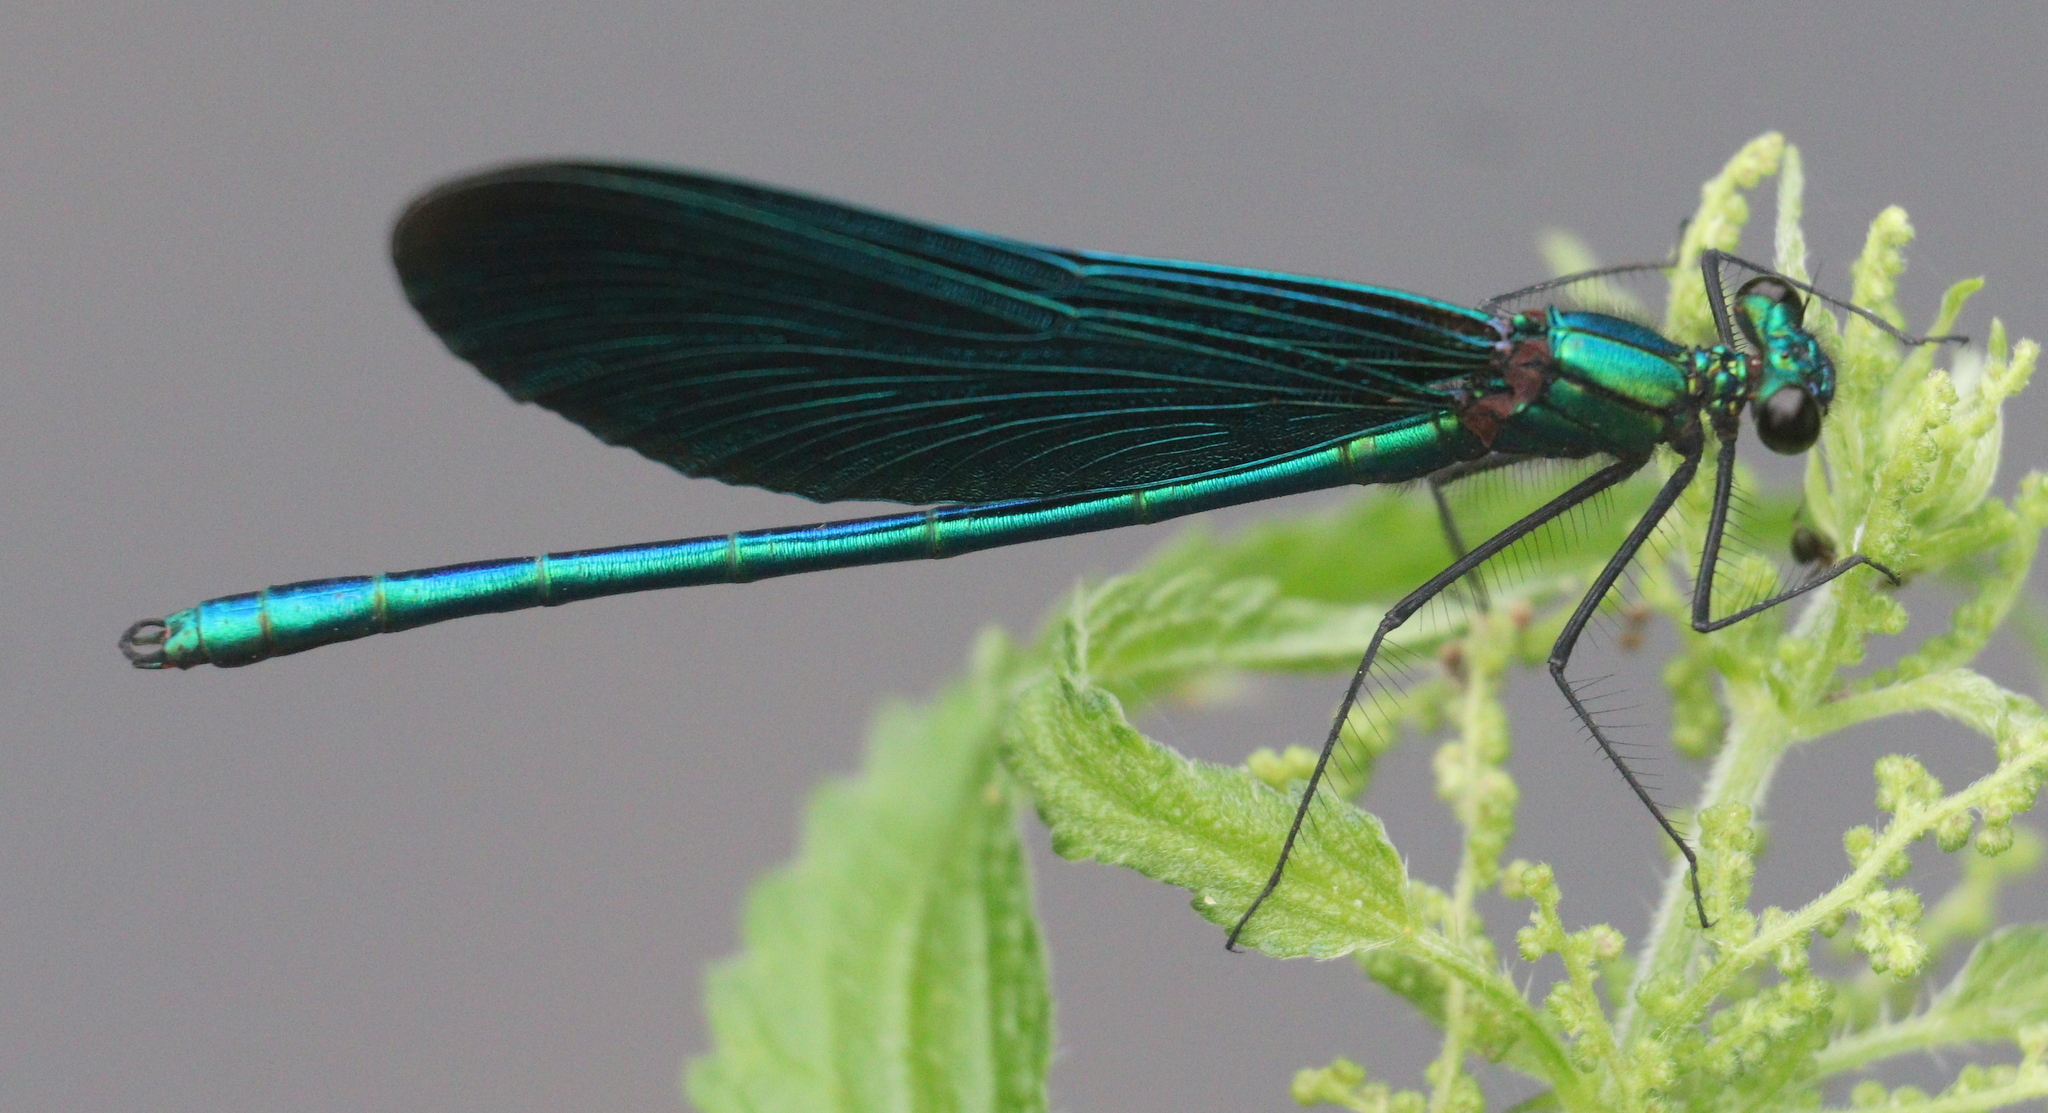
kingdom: Animalia
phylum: Arthropoda
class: Insecta
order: Odonata
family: Calopterygidae
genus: Calopteryx
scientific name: Calopteryx virgo
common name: Beautiful demoiselle
